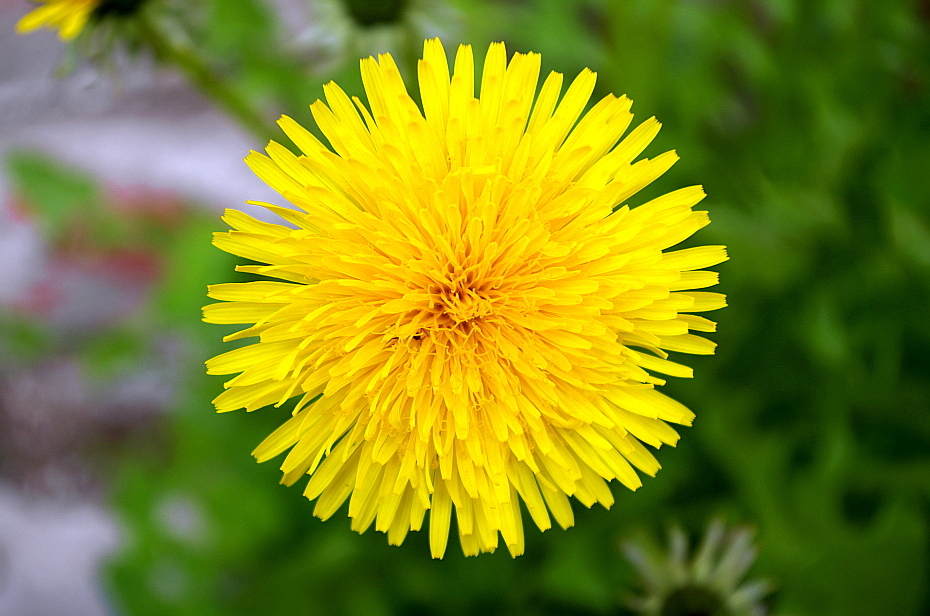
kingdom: Plantae
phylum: Tracheophyta
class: Magnoliopsida
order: Asterales
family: Asteraceae
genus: Taraxacum
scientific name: Taraxacum officinale
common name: Common dandelion
